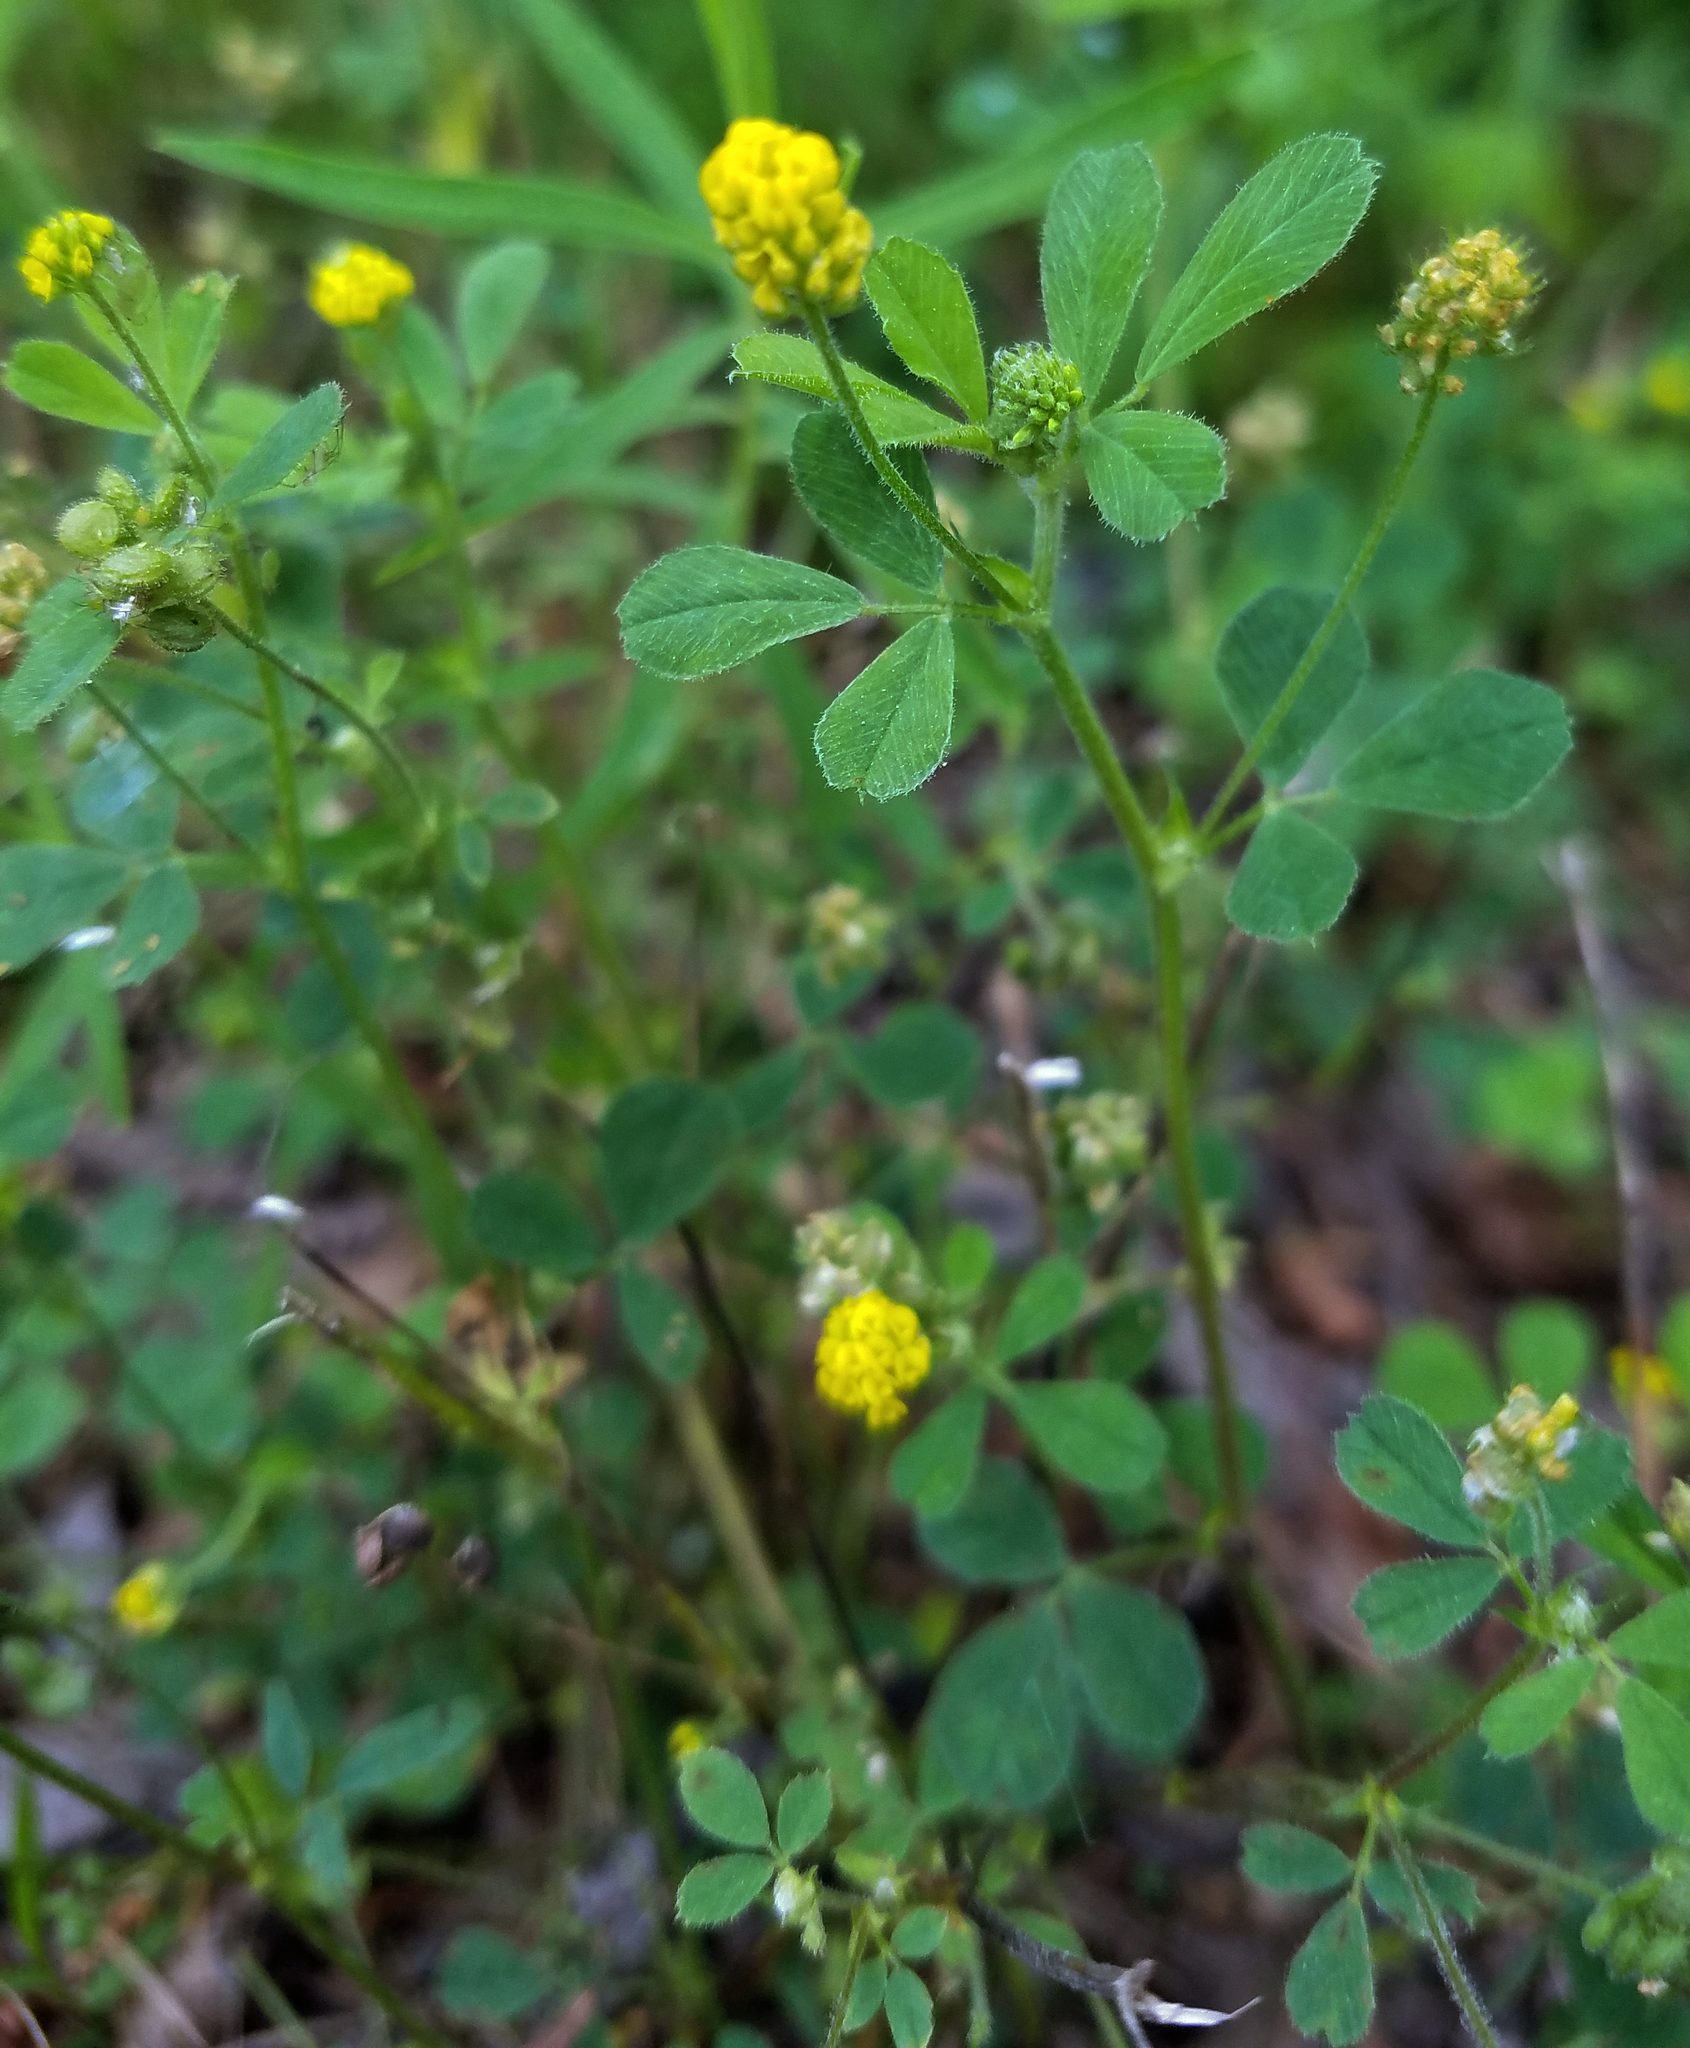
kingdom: Plantae
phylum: Tracheophyta
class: Magnoliopsida
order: Fabales
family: Fabaceae
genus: Medicago
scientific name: Medicago lupulina
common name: Black medick
